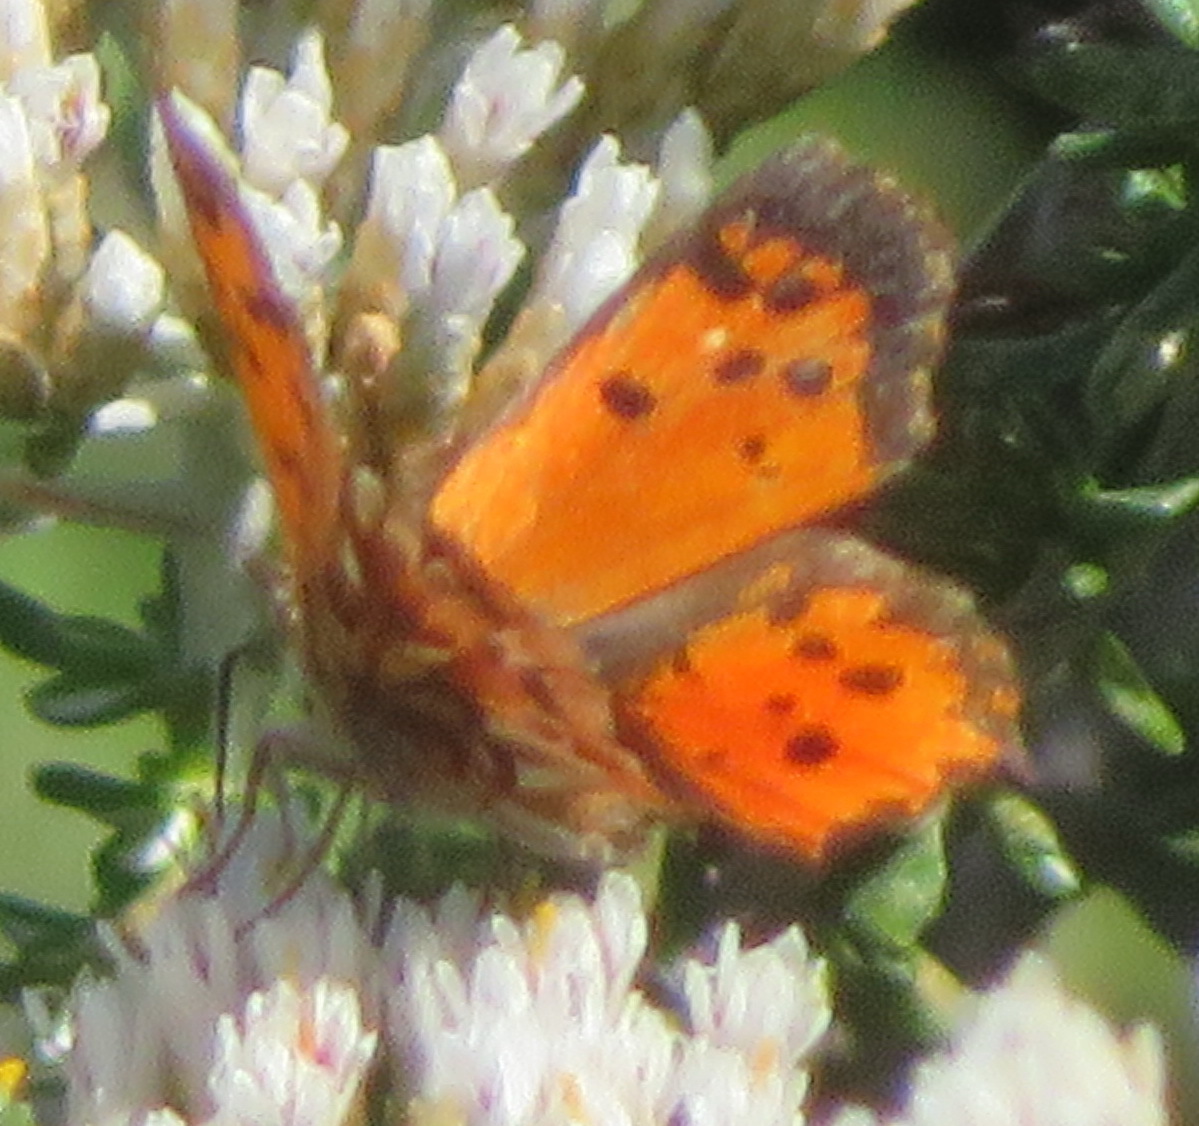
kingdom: Animalia
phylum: Arthropoda
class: Insecta
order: Lepidoptera
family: Lycaenidae
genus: Chrysoritis
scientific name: Chrysoritis
